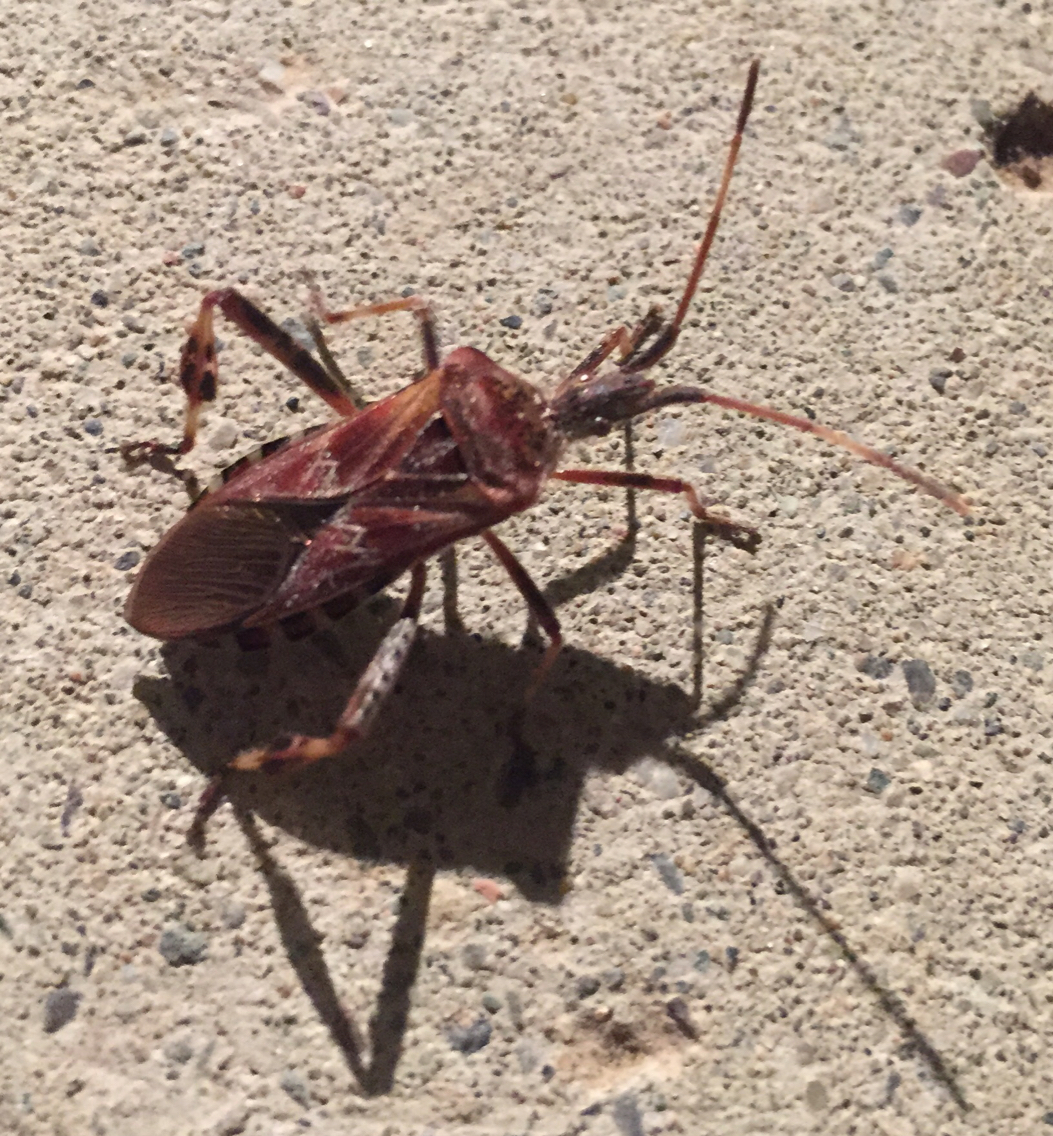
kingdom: Animalia
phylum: Arthropoda
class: Insecta
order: Hemiptera
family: Coreidae
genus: Leptoglossus
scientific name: Leptoglossus occidentalis
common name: Western conifer-seed bug
